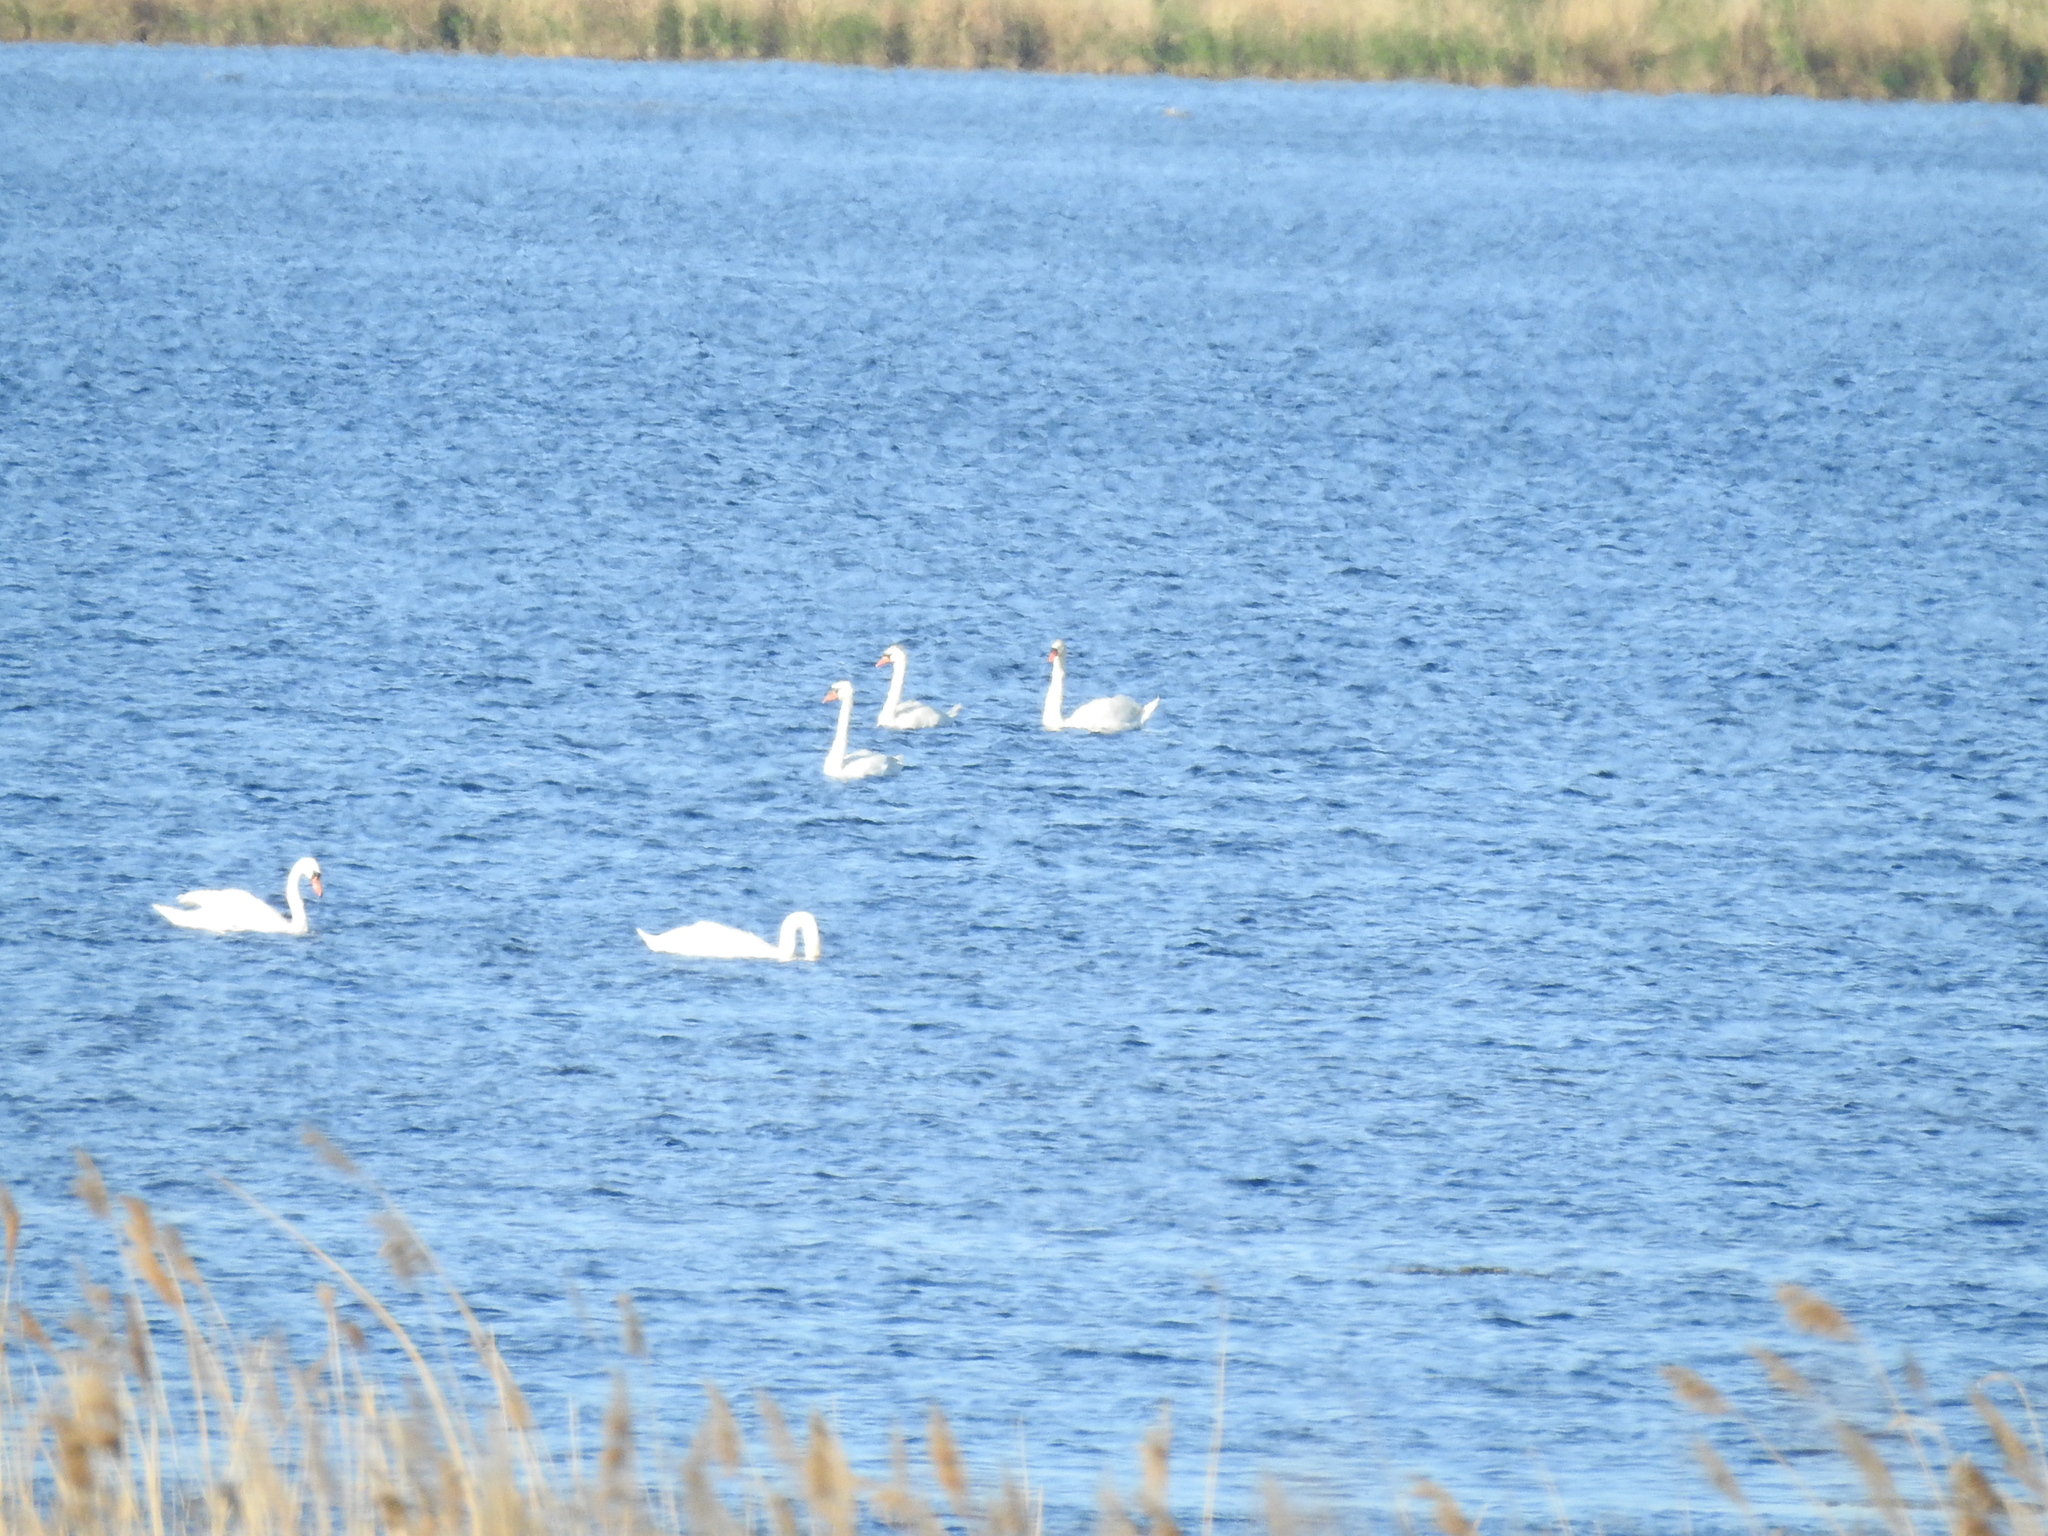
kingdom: Animalia
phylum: Chordata
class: Aves
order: Anseriformes
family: Anatidae
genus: Cygnus
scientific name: Cygnus olor
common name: Mute swan
